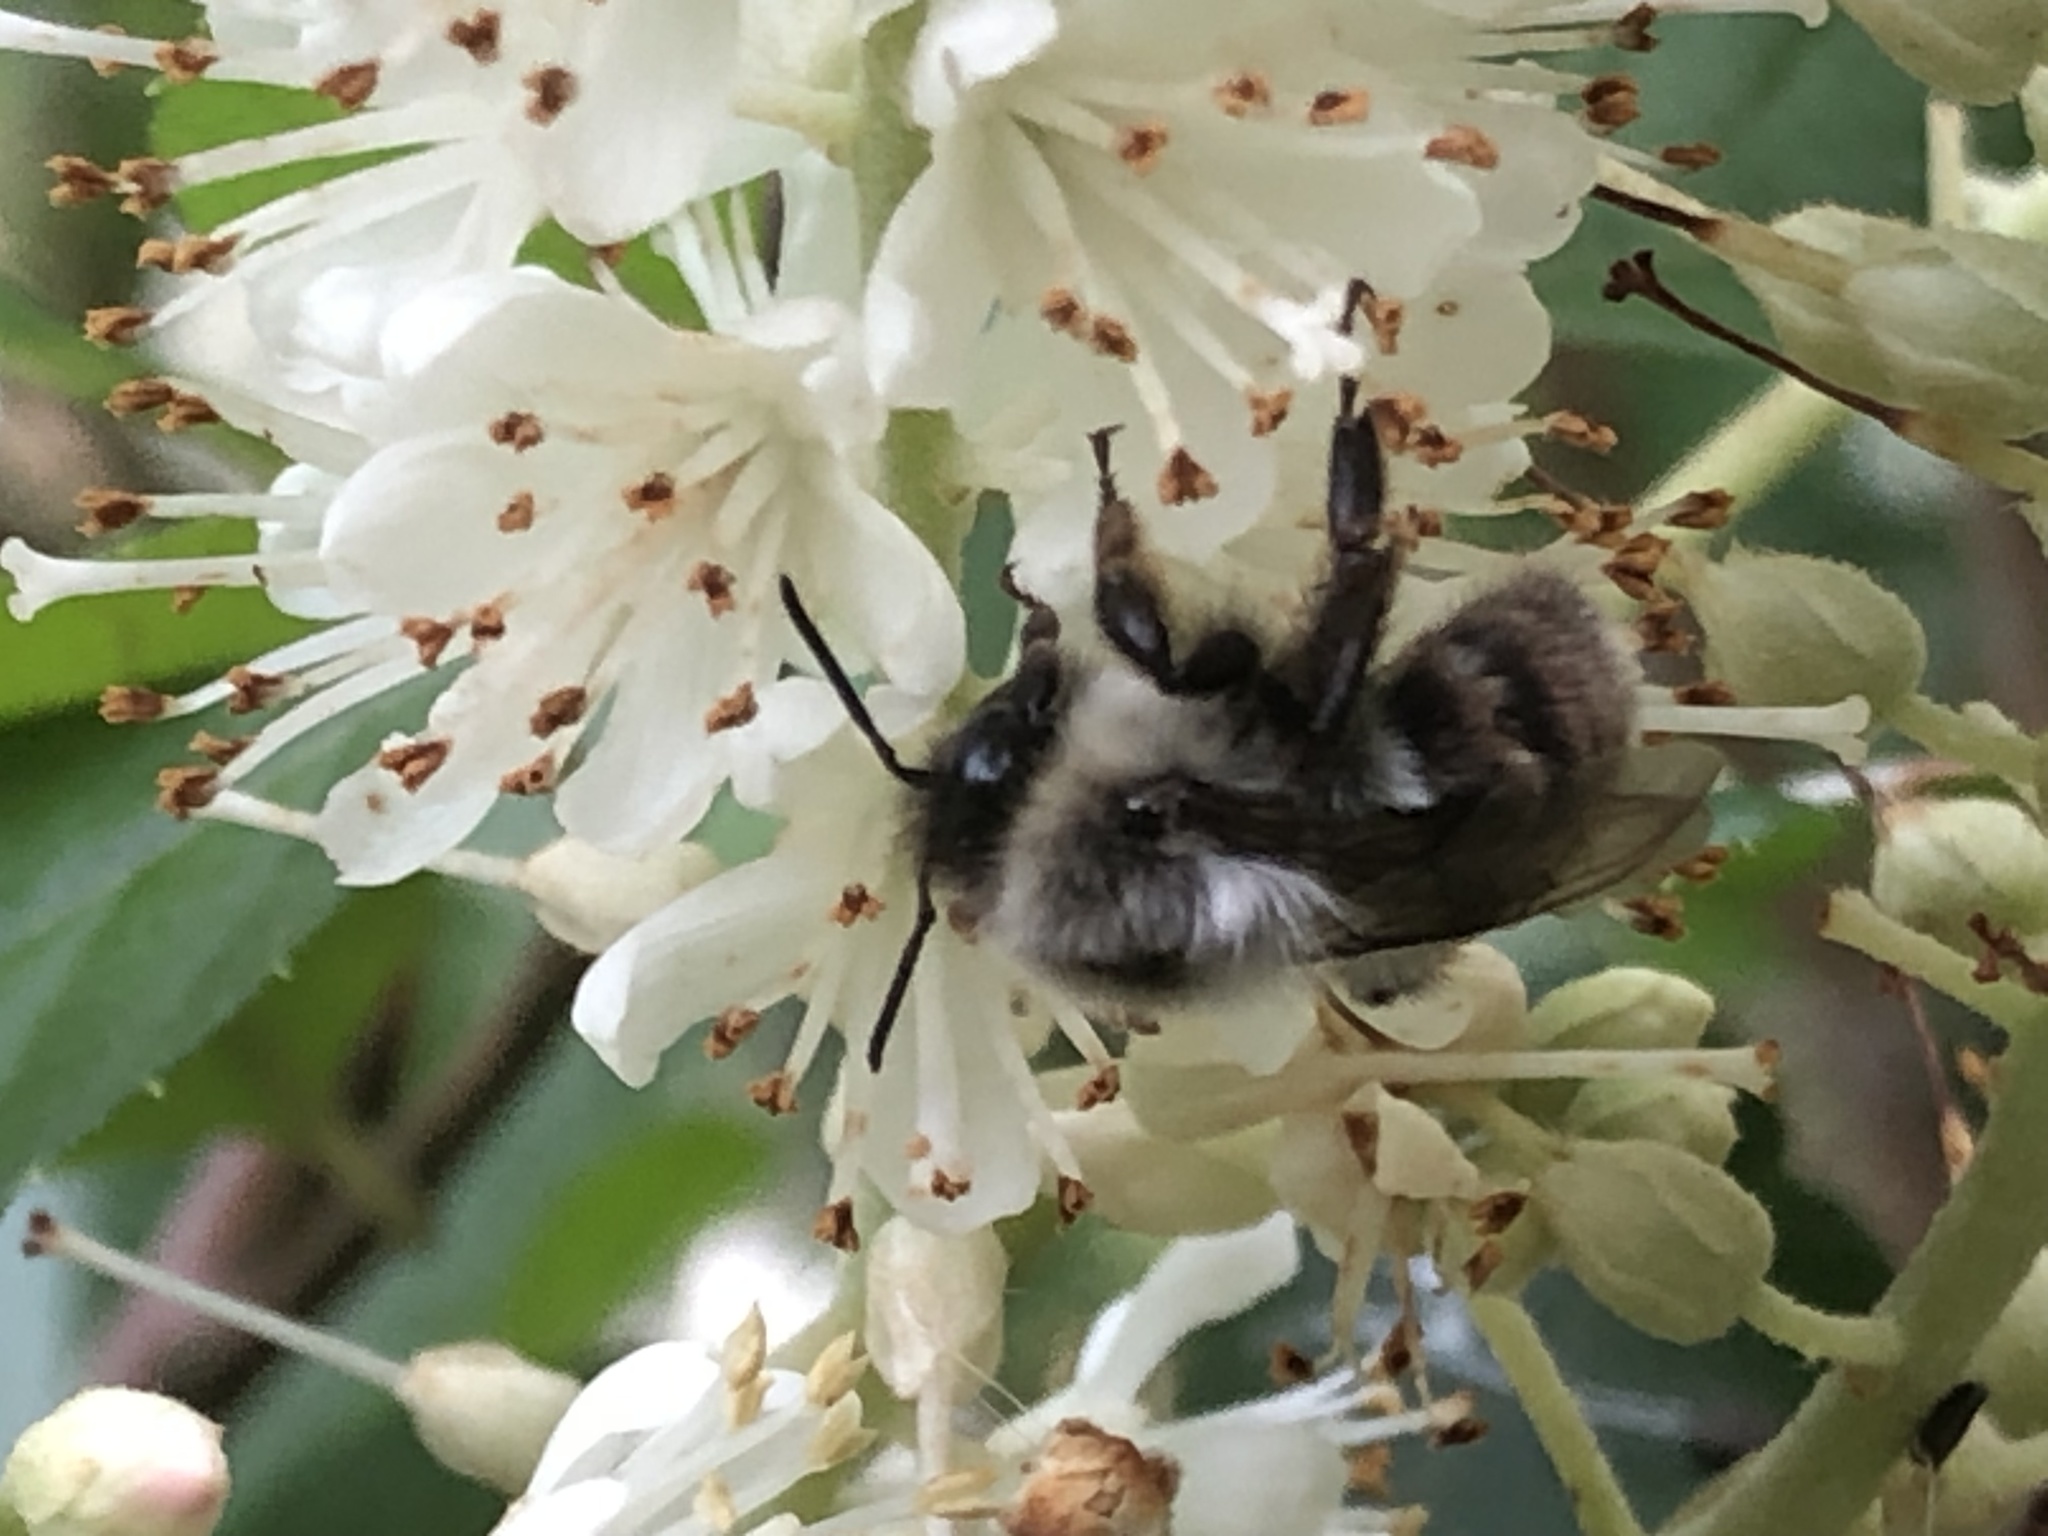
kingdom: Animalia
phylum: Arthropoda
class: Insecta
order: Hymenoptera
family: Apidae
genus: Bombus
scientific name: Bombus impatiens
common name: Common eastern bumble bee
